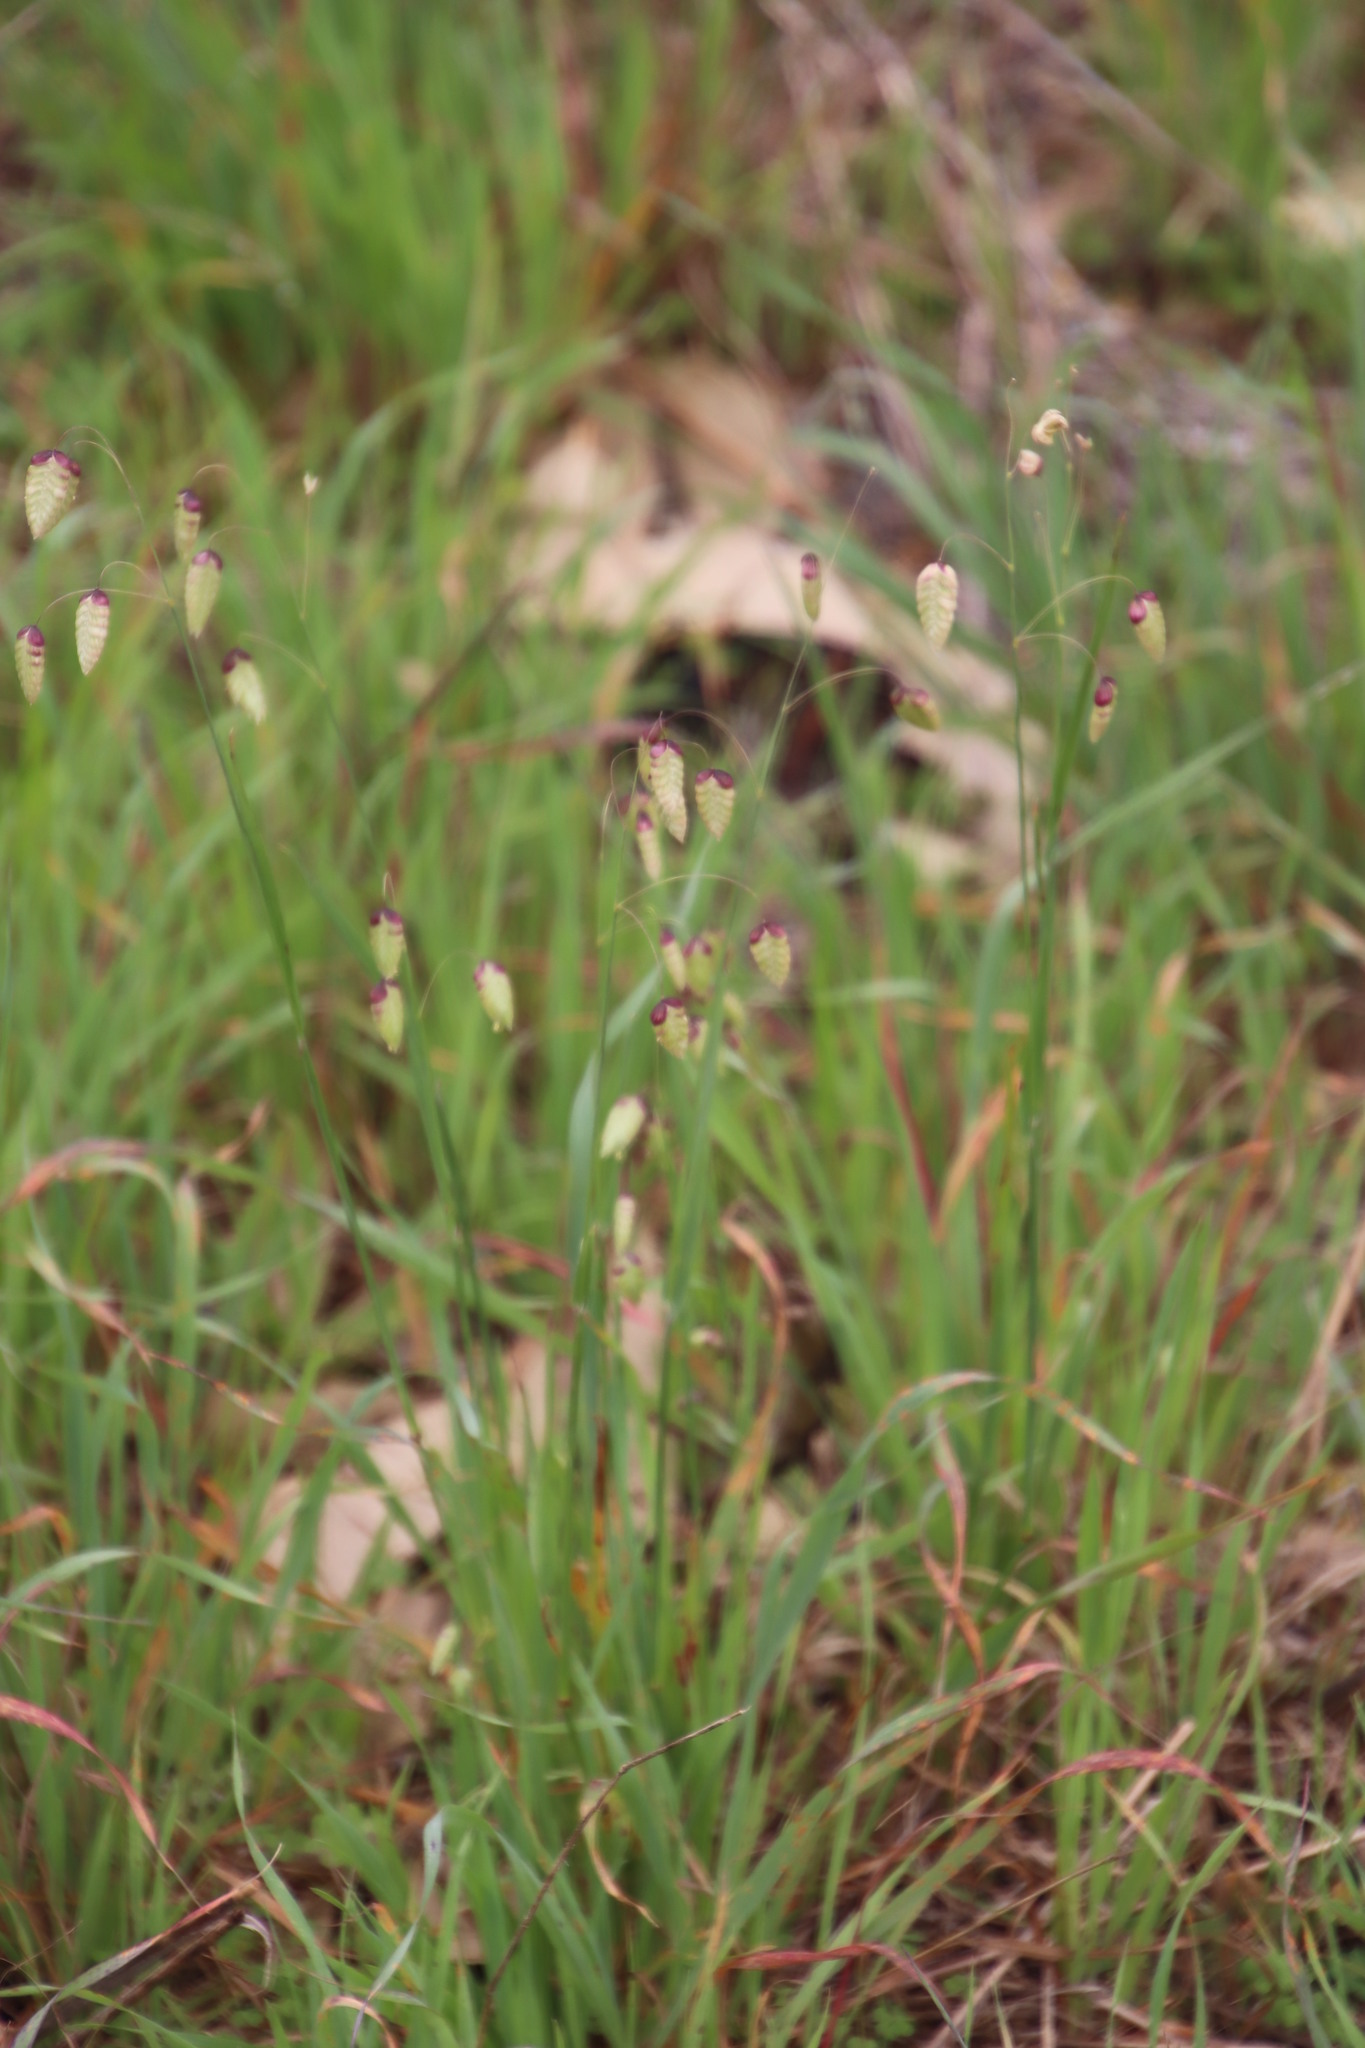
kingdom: Plantae
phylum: Tracheophyta
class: Liliopsida
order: Poales
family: Poaceae
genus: Briza
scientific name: Briza maxima
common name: Big quakinggrass
